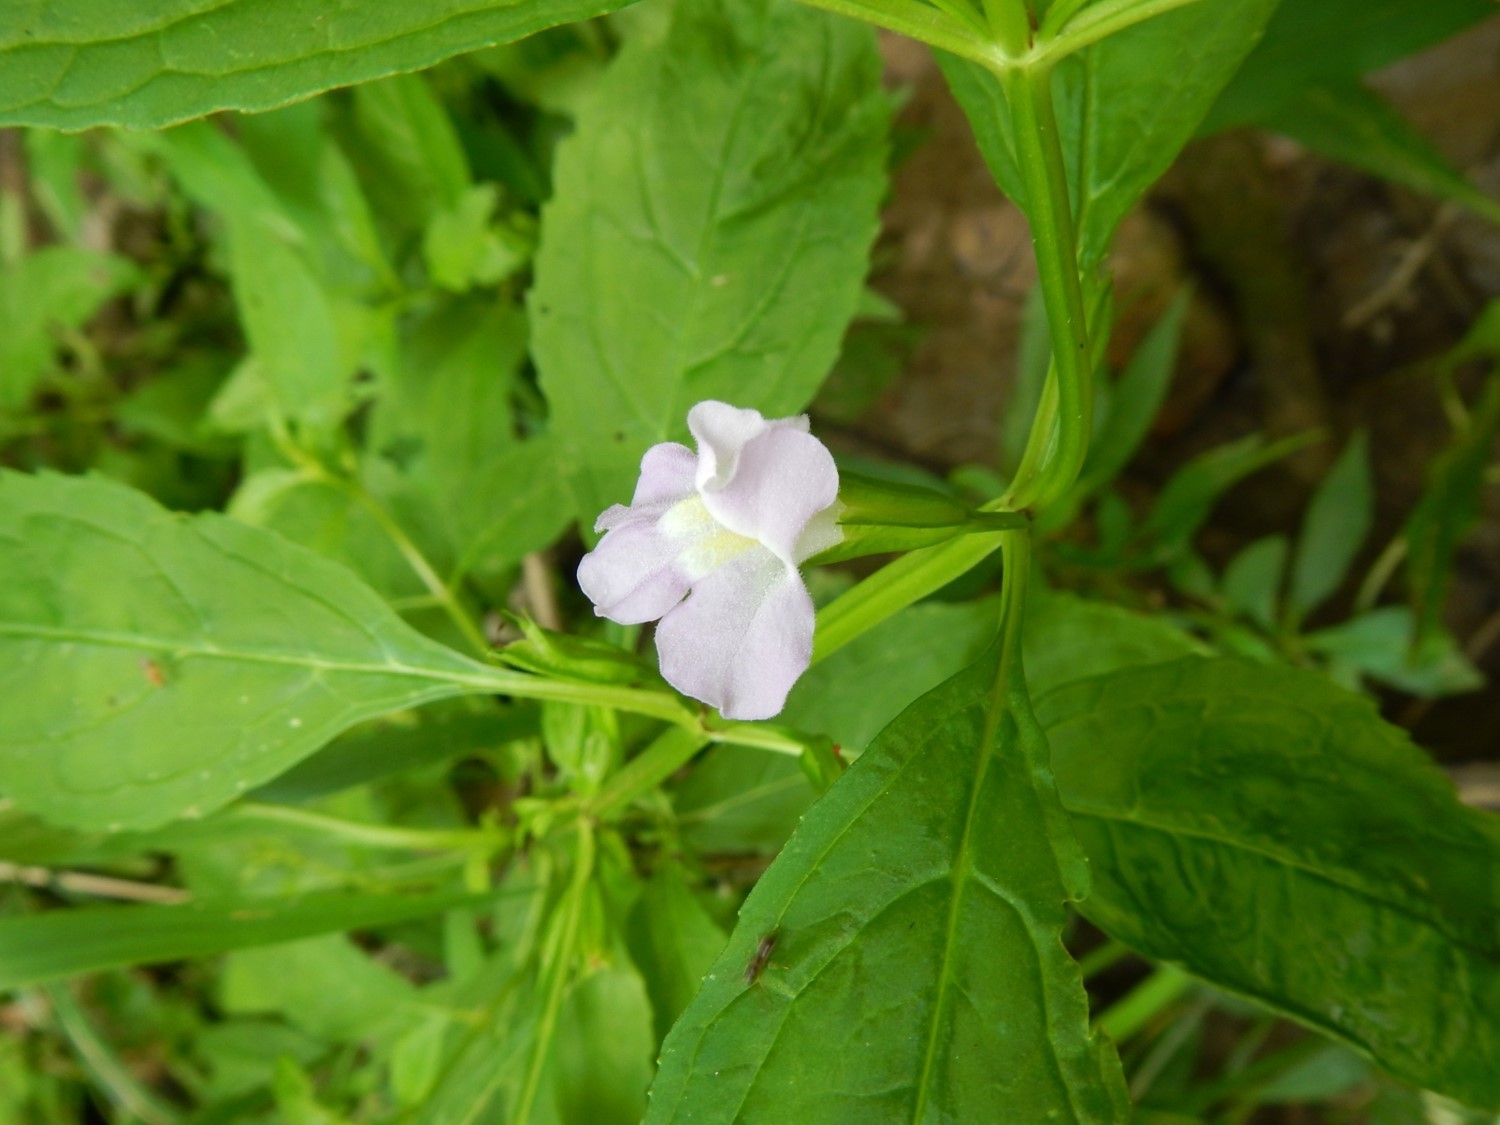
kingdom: Plantae
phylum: Tracheophyta
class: Magnoliopsida
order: Lamiales
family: Phrymaceae
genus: Mimulus
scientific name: Mimulus alatus
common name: Sharp-wing monkey-flower
